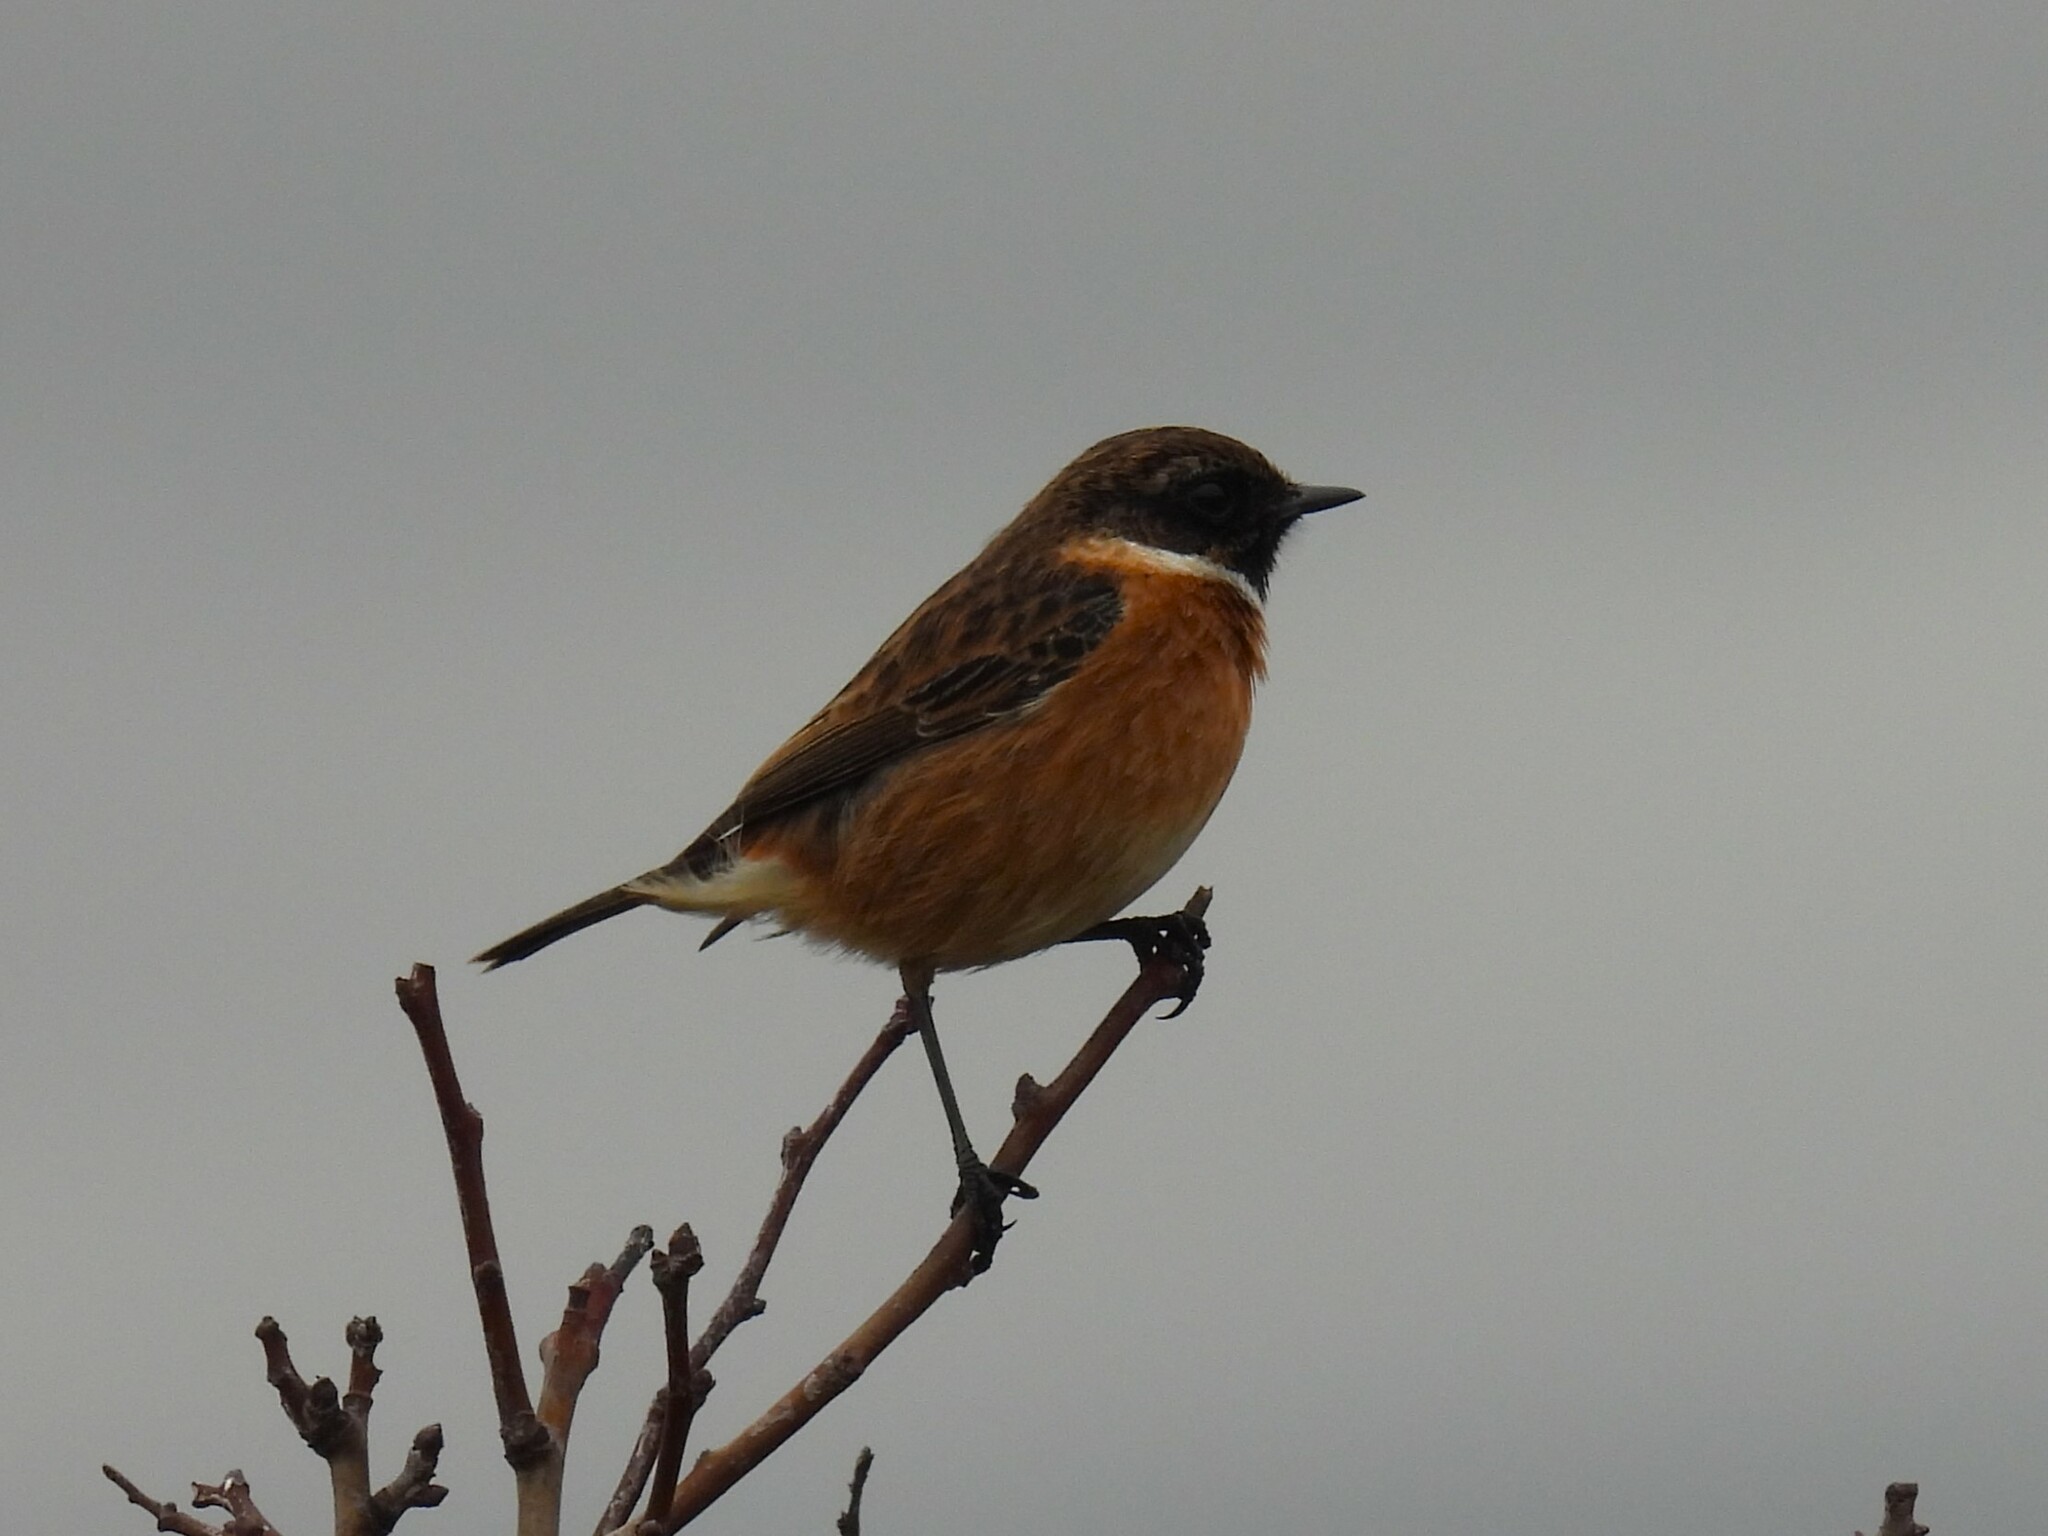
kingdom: Animalia
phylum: Chordata
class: Aves
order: Passeriformes
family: Muscicapidae
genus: Saxicola
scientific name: Saxicola rubicola
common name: European stonechat
